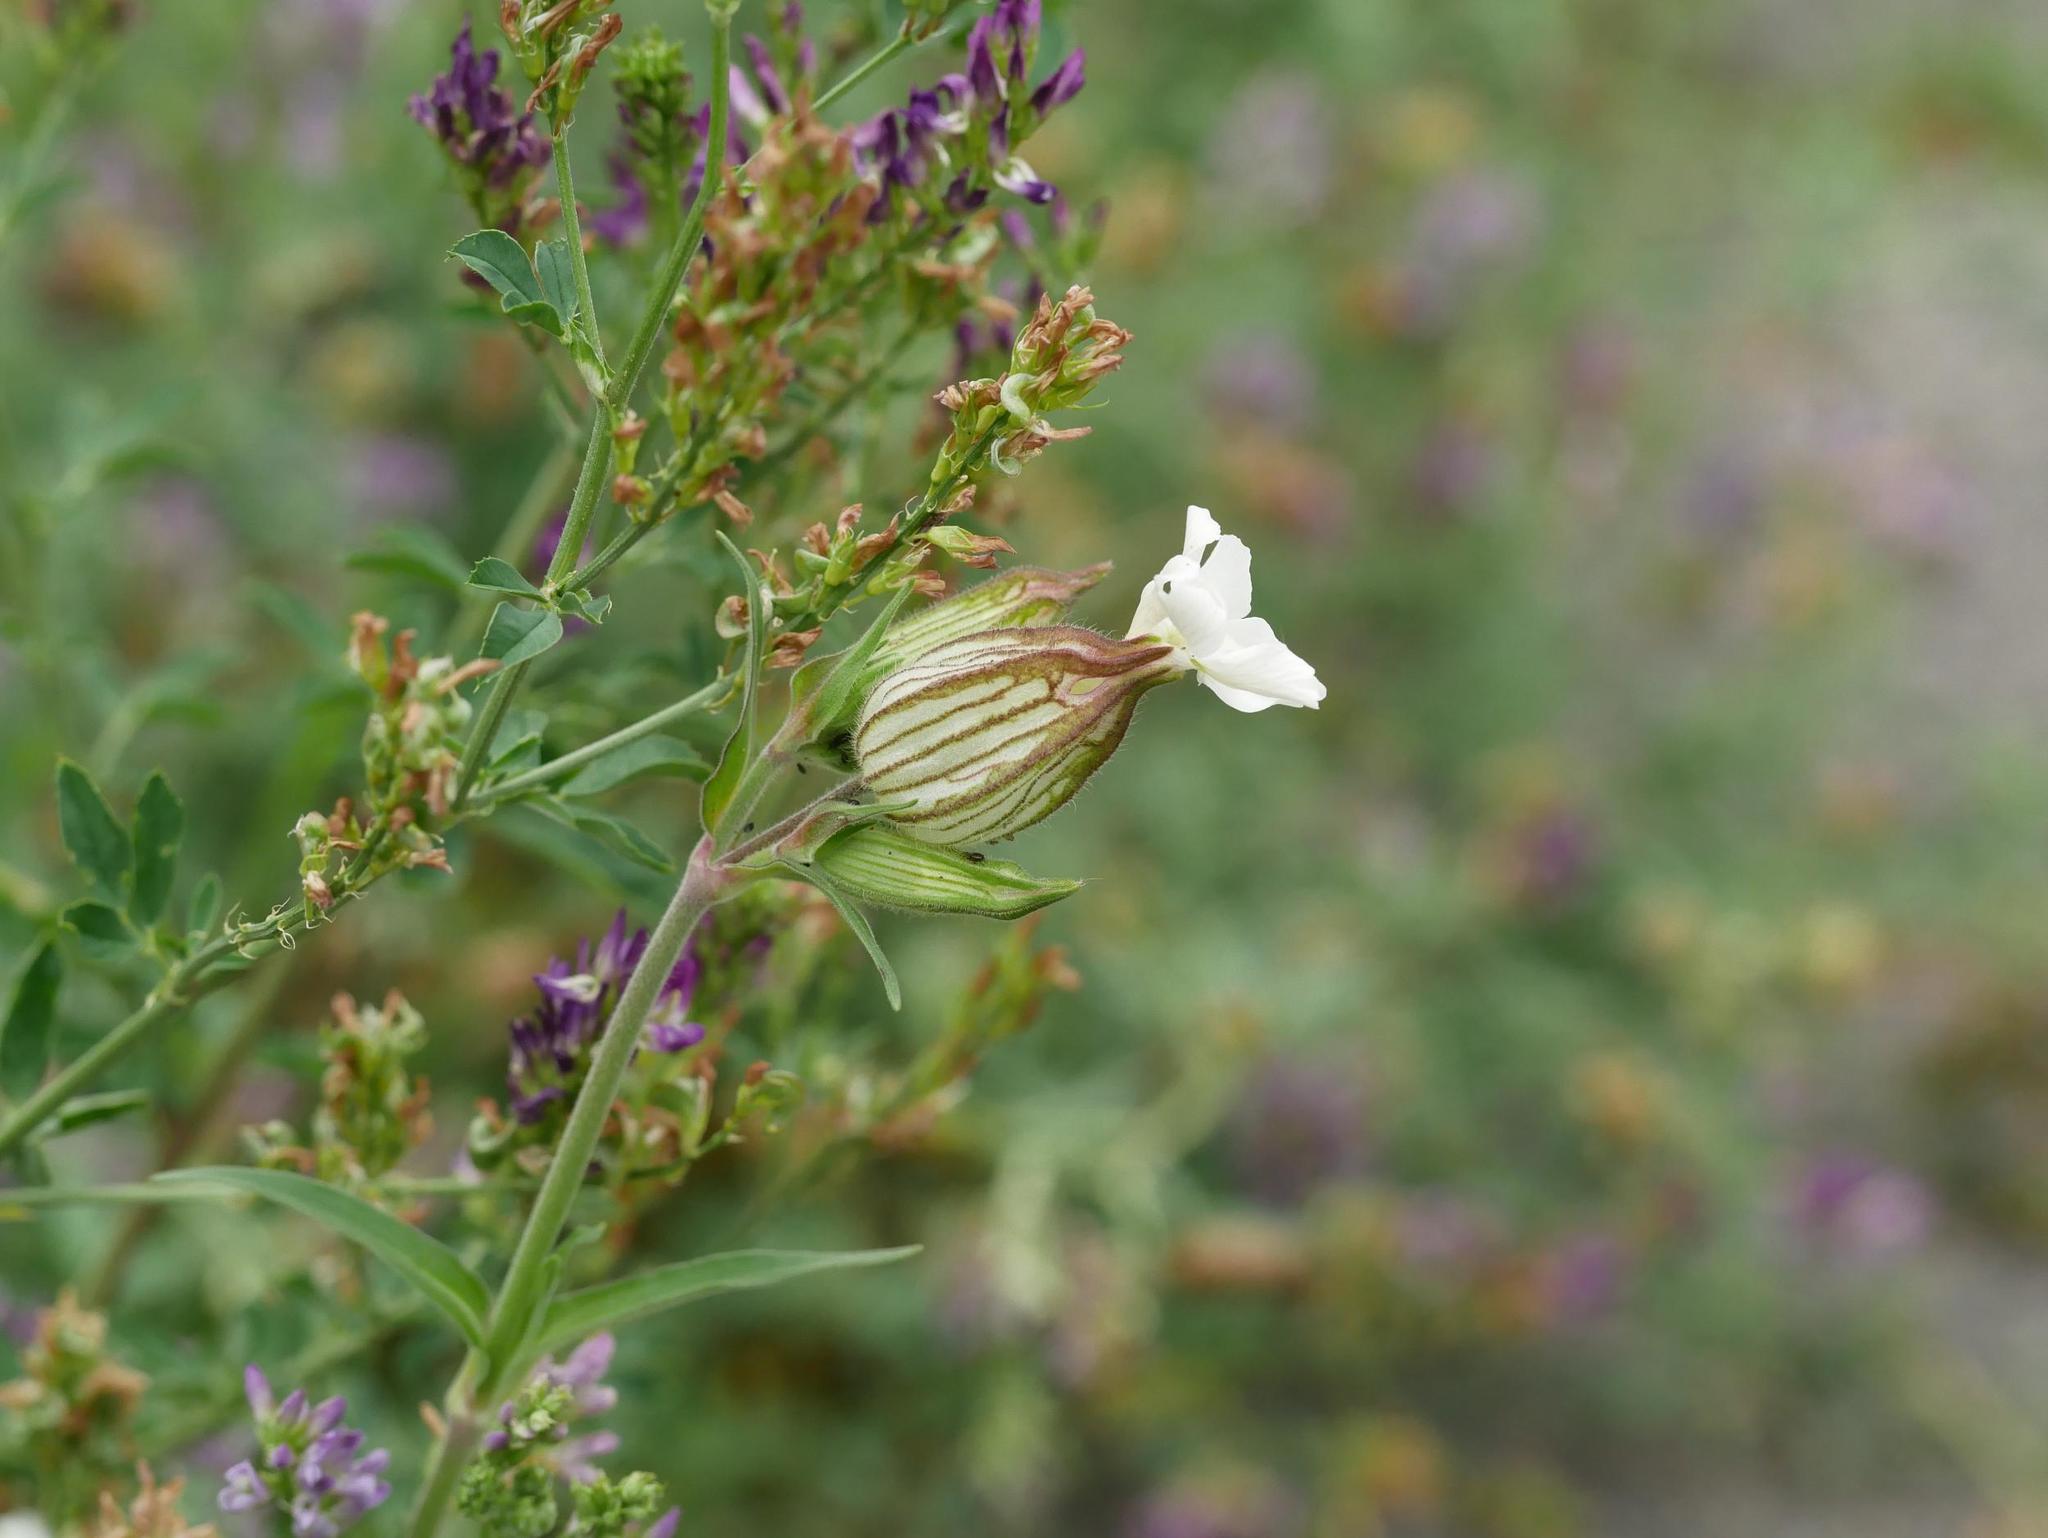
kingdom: Plantae
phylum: Tracheophyta
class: Magnoliopsida
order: Caryophyllales
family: Caryophyllaceae
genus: Silene
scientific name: Silene latifolia
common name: White campion
